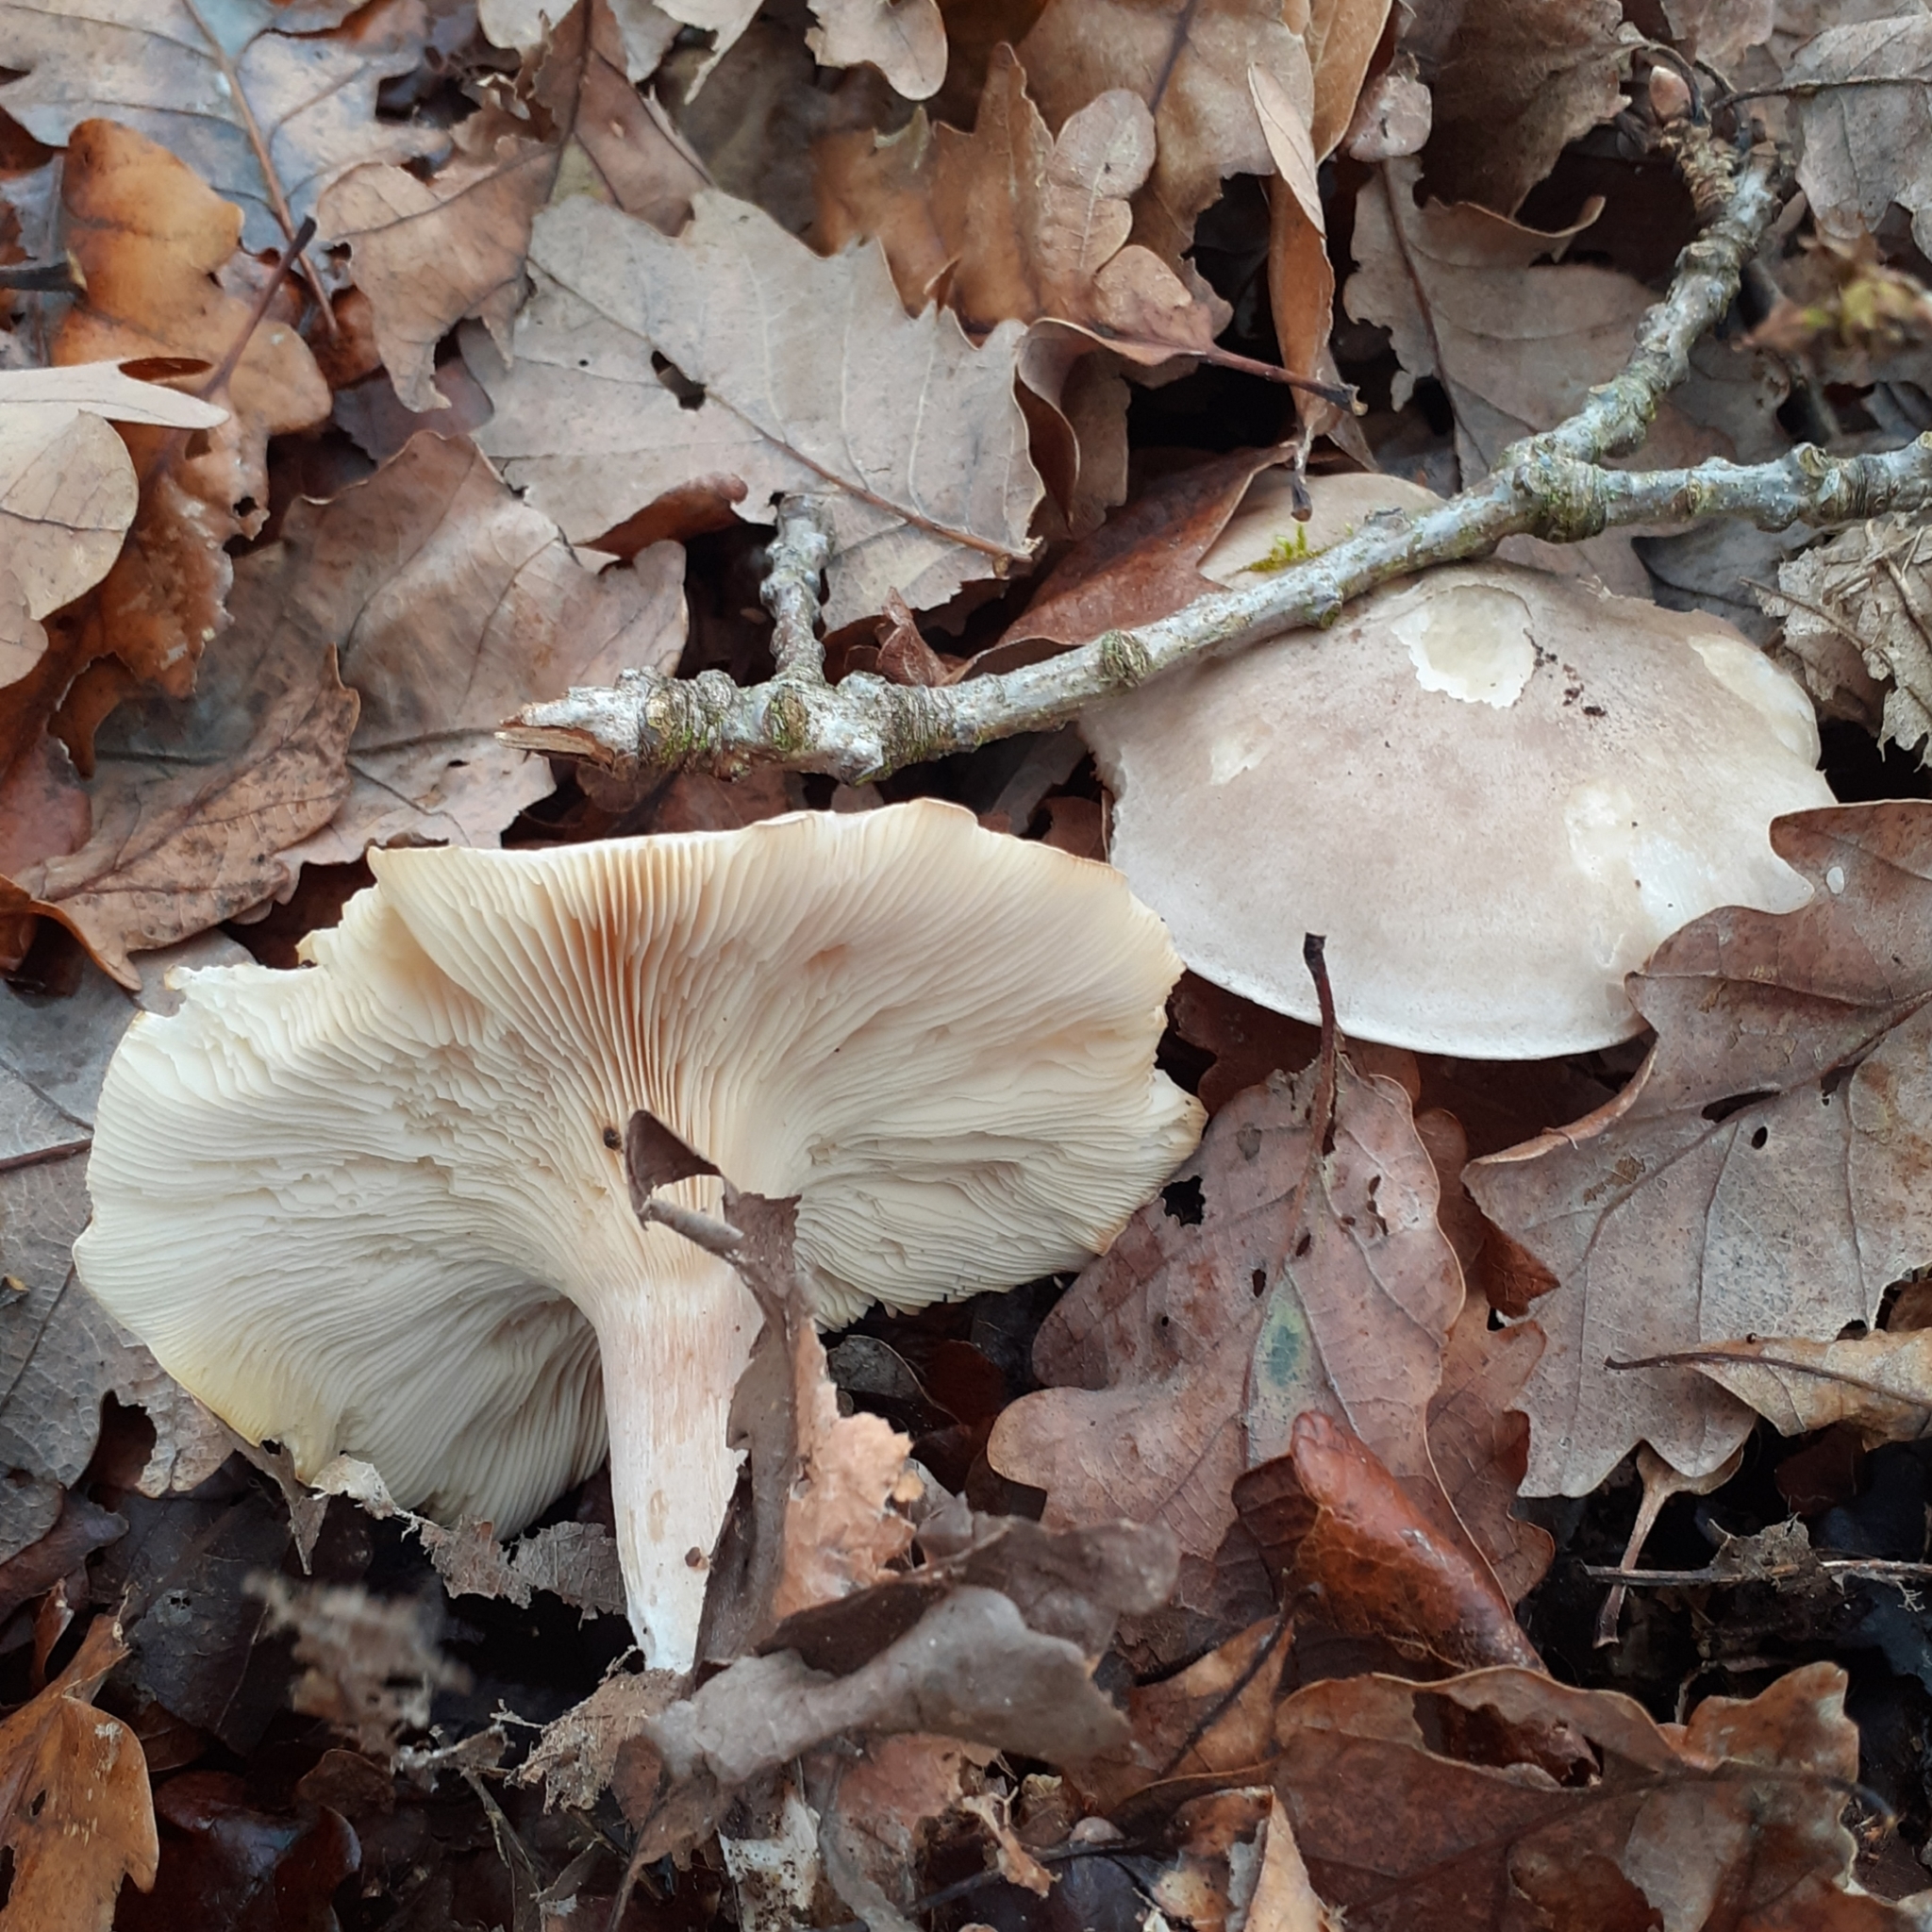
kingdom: Fungi
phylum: Basidiomycota
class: Agaricomycetes
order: Agaricales
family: Tricholomataceae
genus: Clitocybe
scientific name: Clitocybe nebularis
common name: Clouded agaric
